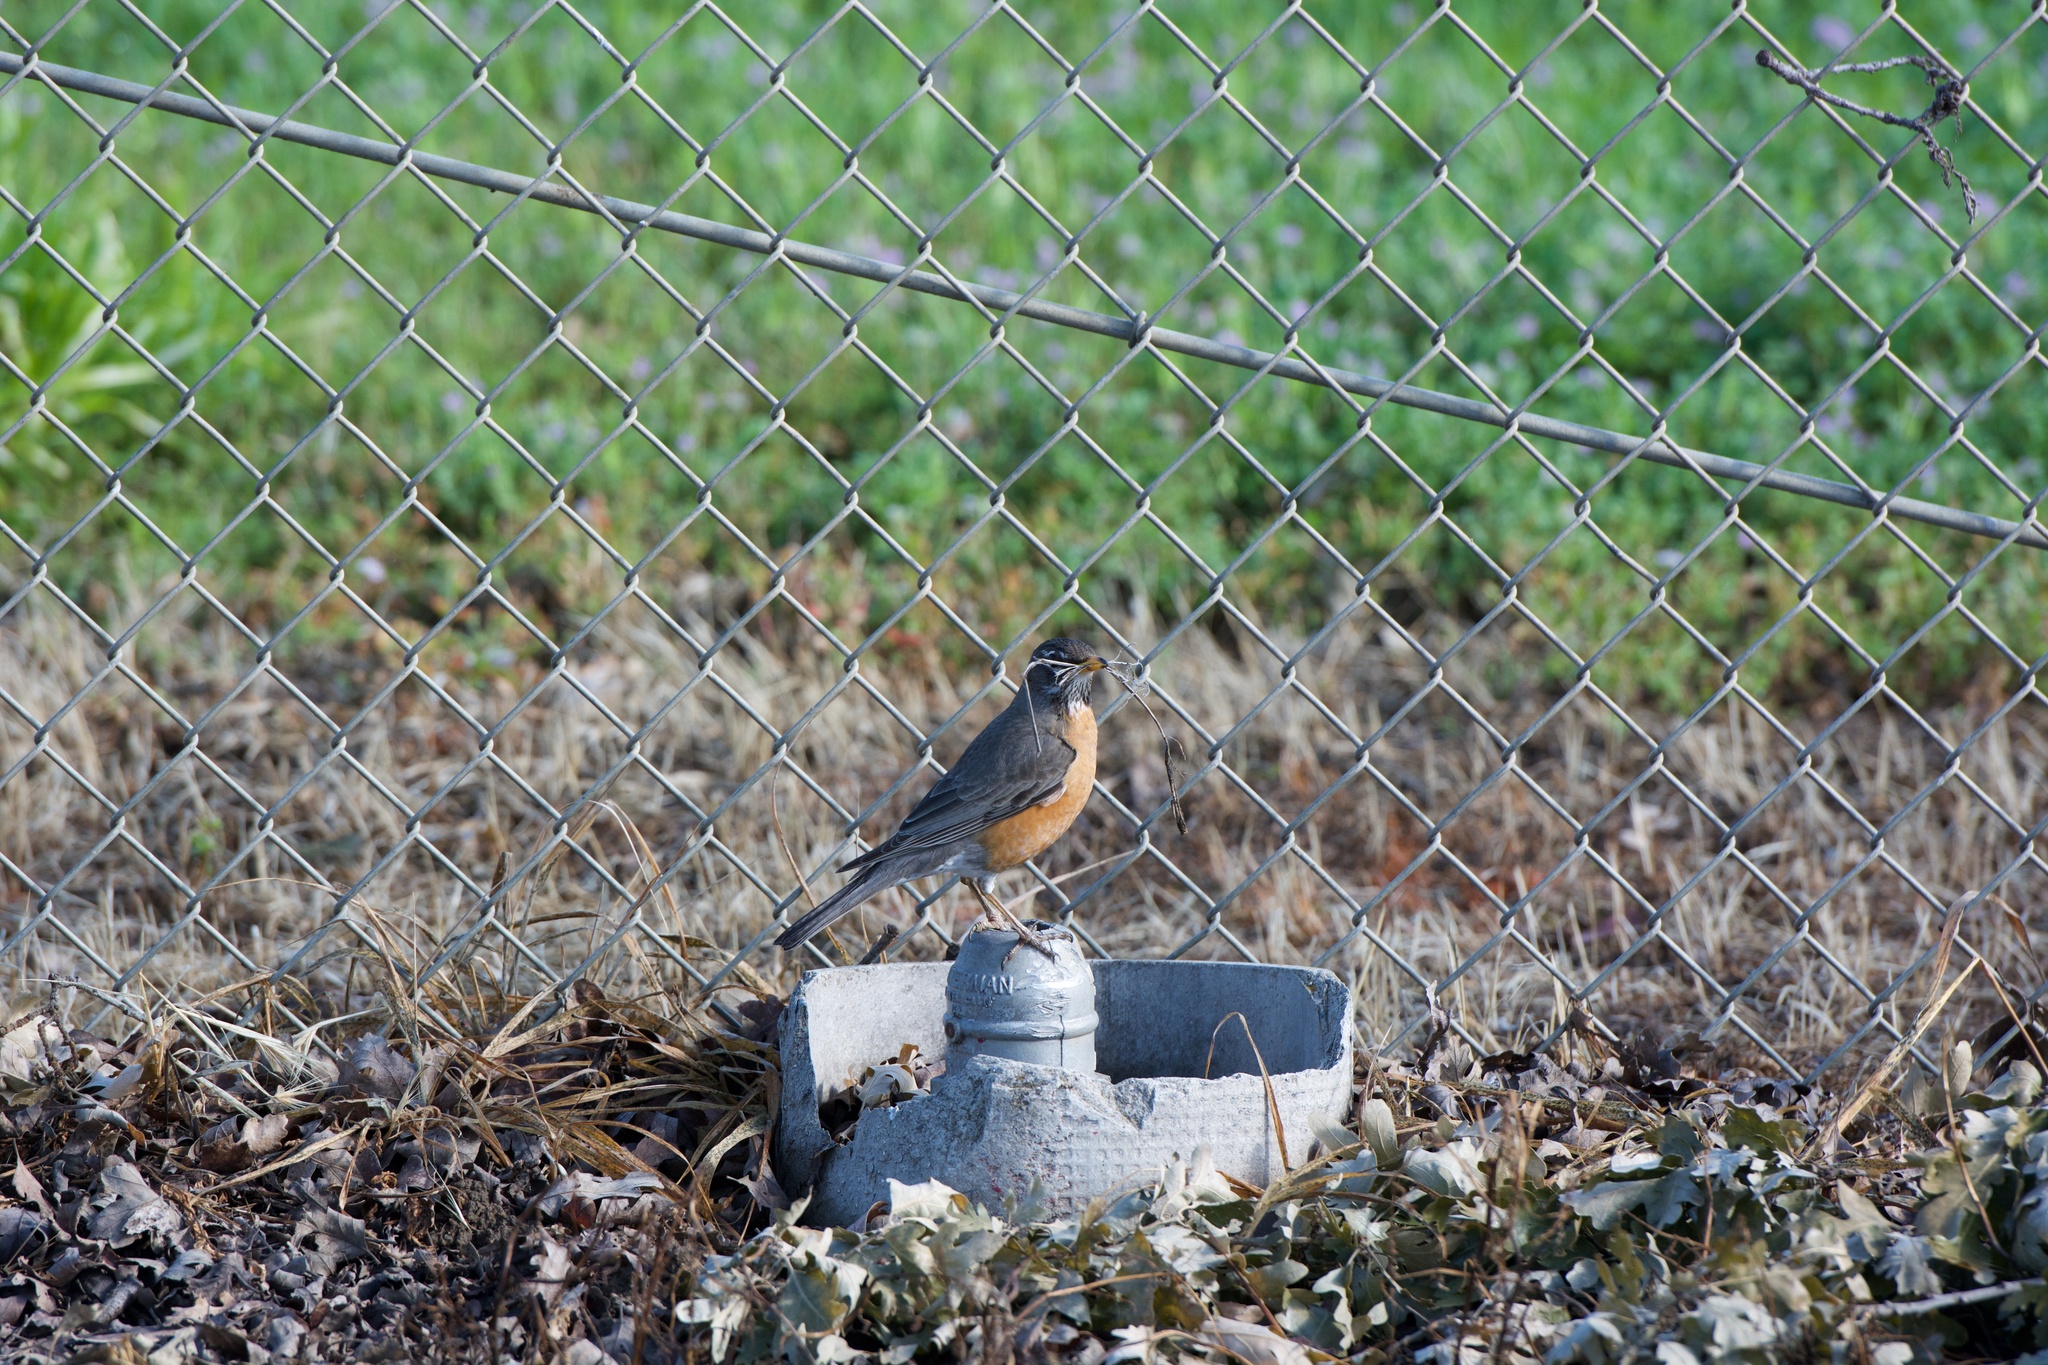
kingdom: Animalia
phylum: Chordata
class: Aves
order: Passeriformes
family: Turdidae
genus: Turdus
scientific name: Turdus migratorius
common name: American robin
